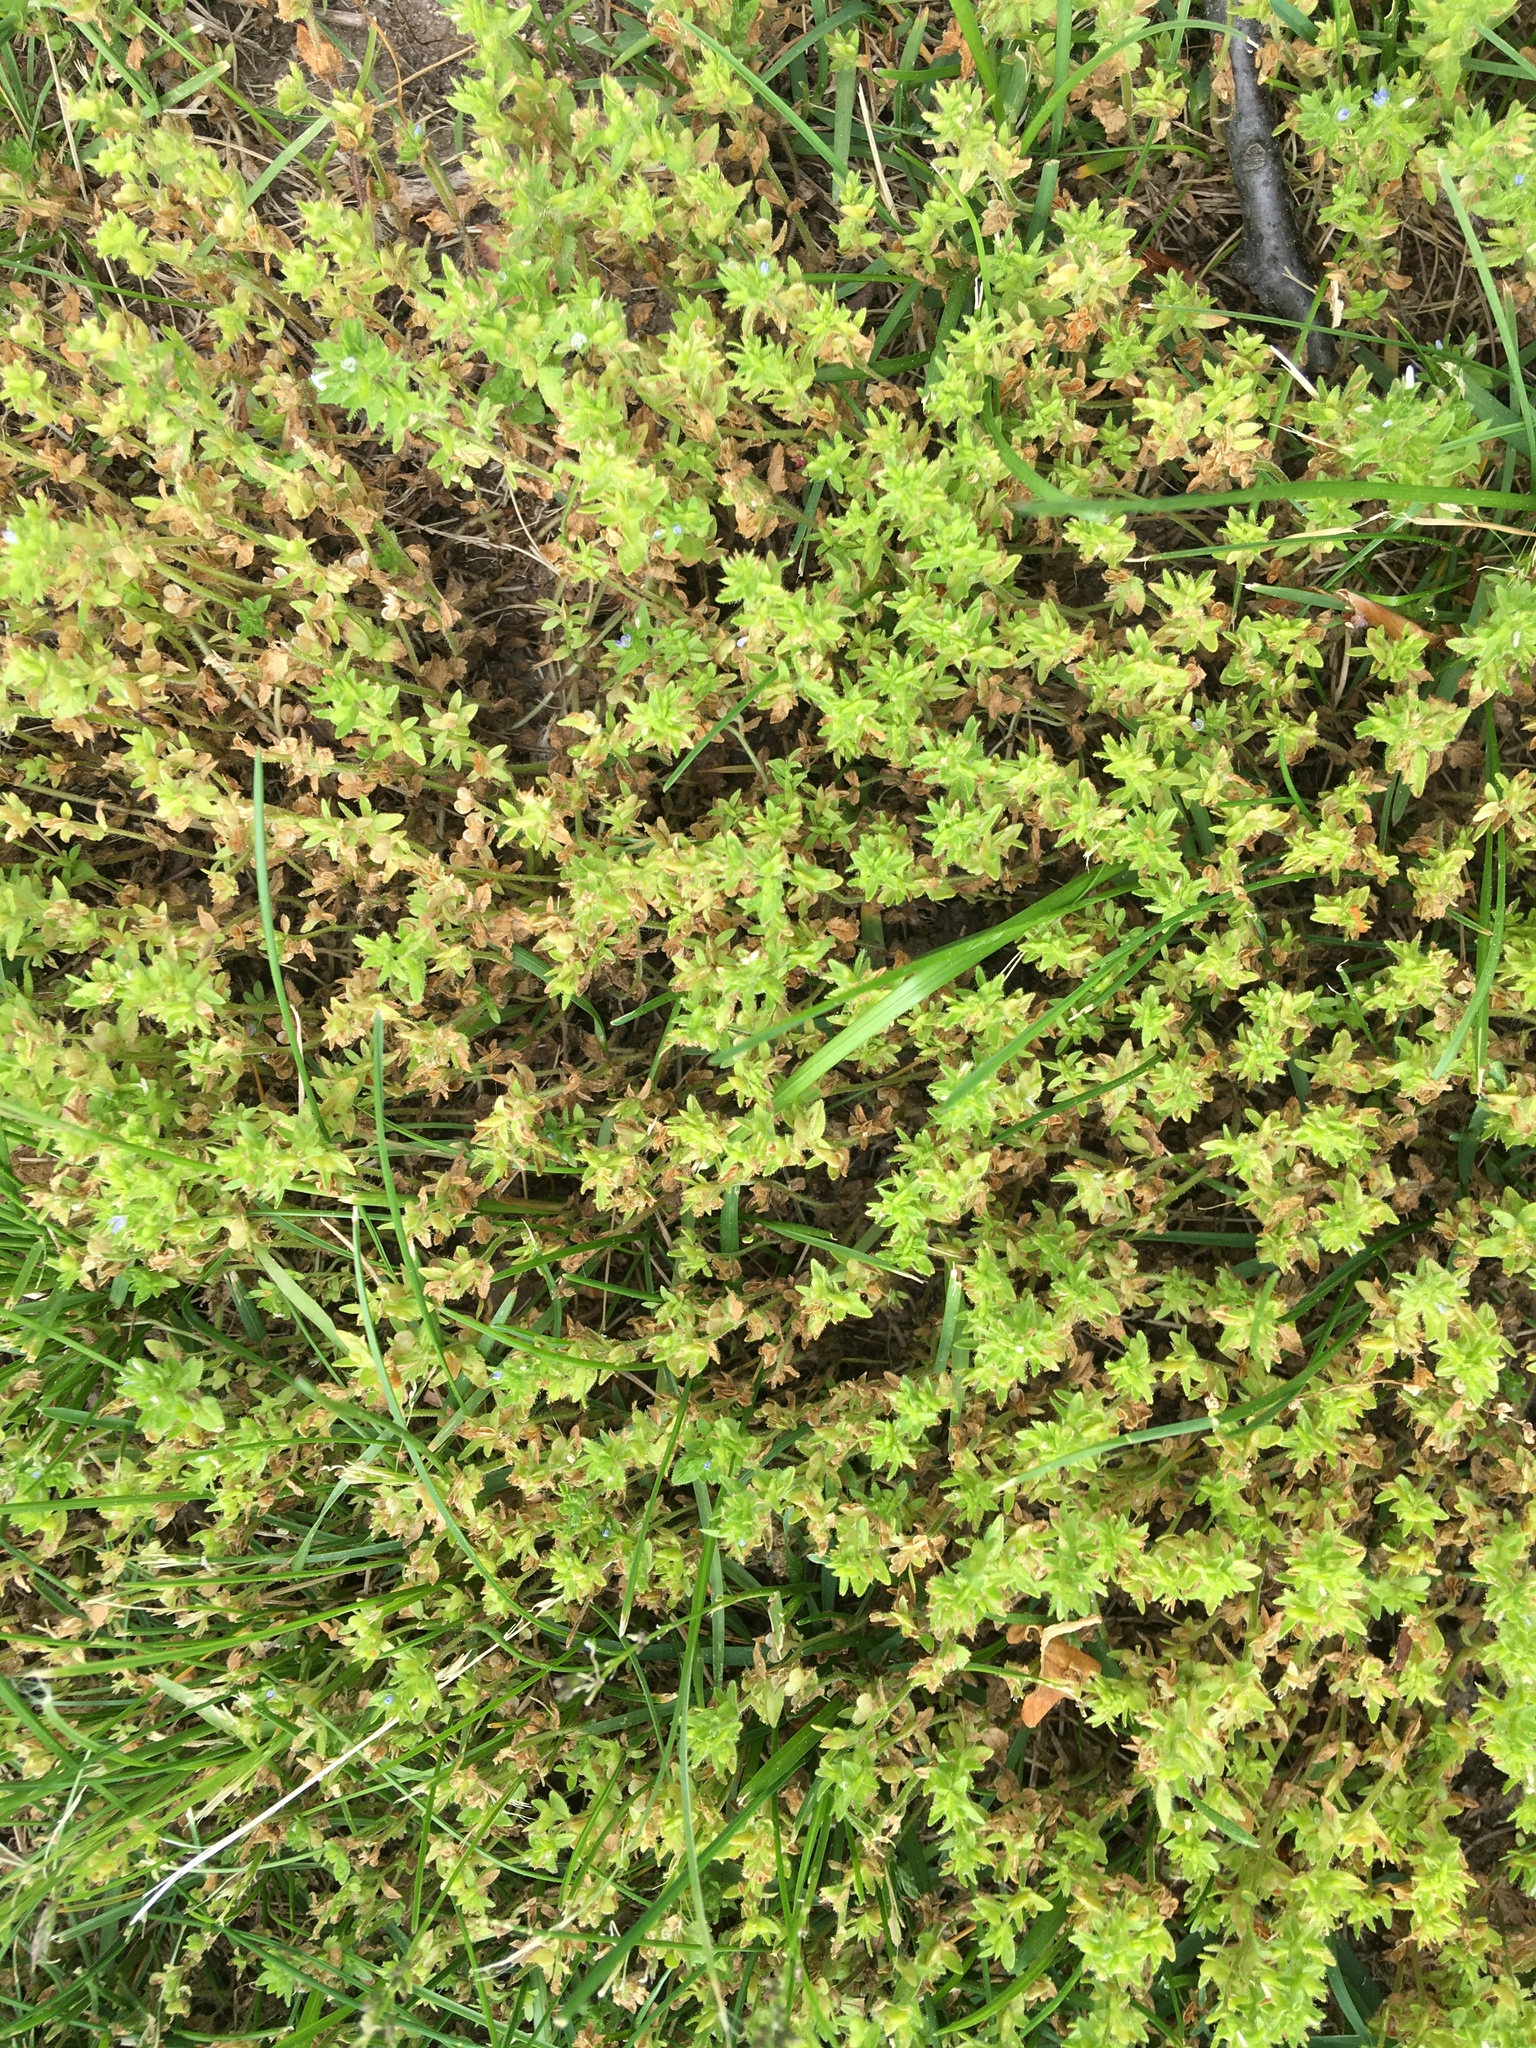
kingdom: Plantae
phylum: Tracheophyta
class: Magnoliopsida
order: Lamiales
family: Plantaginaceae
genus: Veronica
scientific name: Veronica arvensis
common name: Corn speedwell
